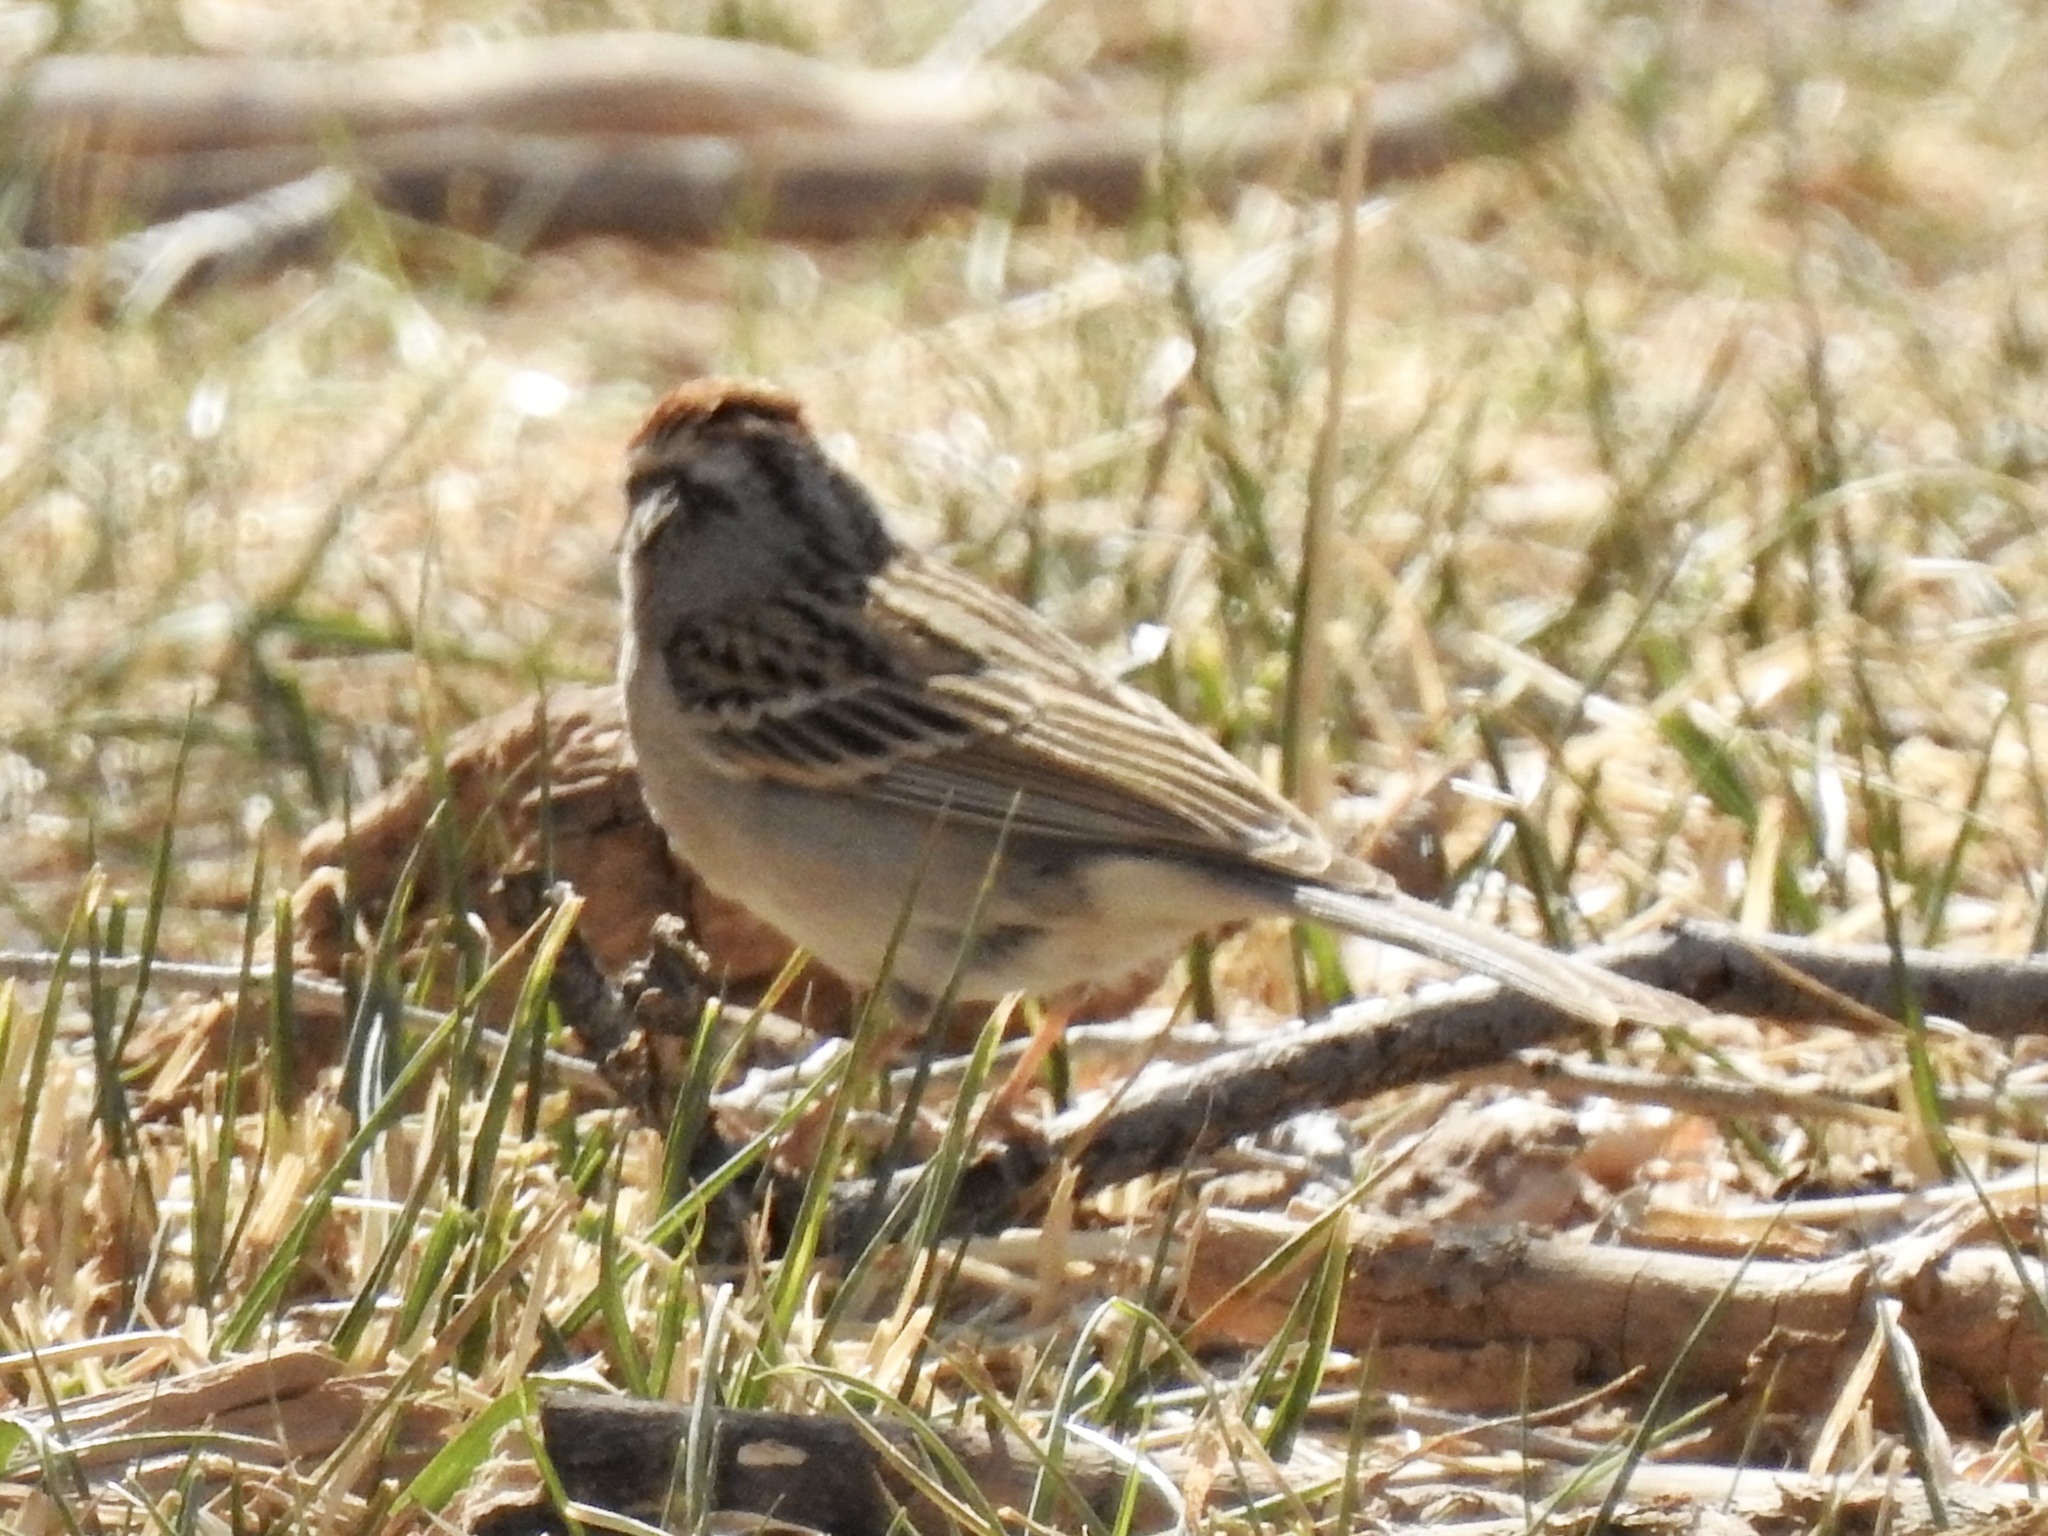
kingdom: Animalia
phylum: Chordata
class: Aves
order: Passeriformes
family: Passerellidae
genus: Spizella
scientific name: Spizella passerina
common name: Chipping sparrow
